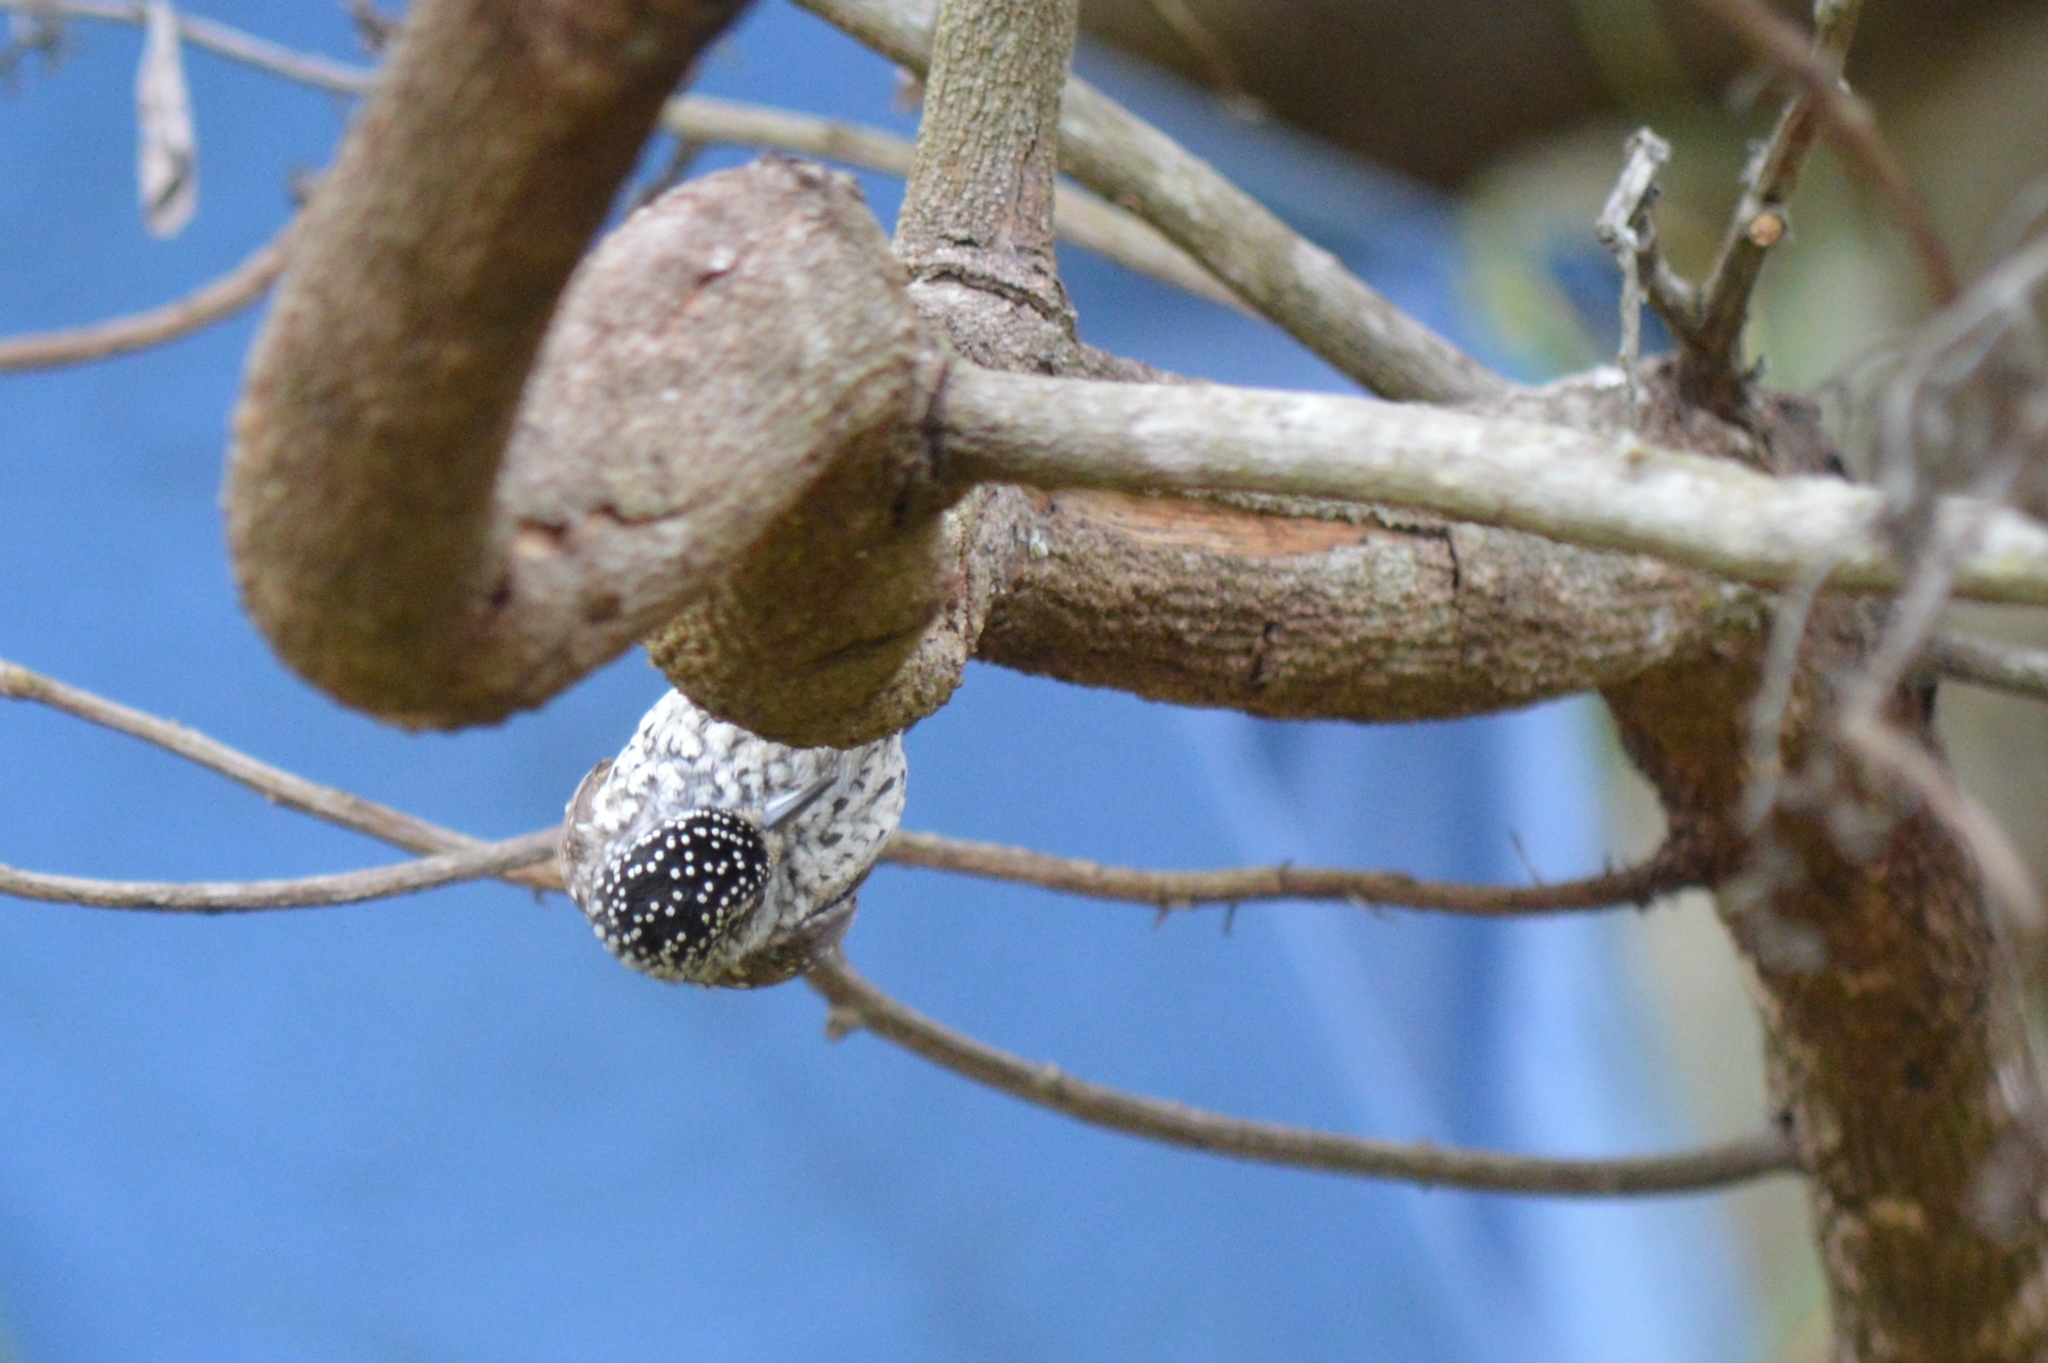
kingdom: Animalia
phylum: Chordata
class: Aves
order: Piciformes
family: Picidae
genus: Picumnus
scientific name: Picumnus albosquamatus
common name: White-wedged piculet
